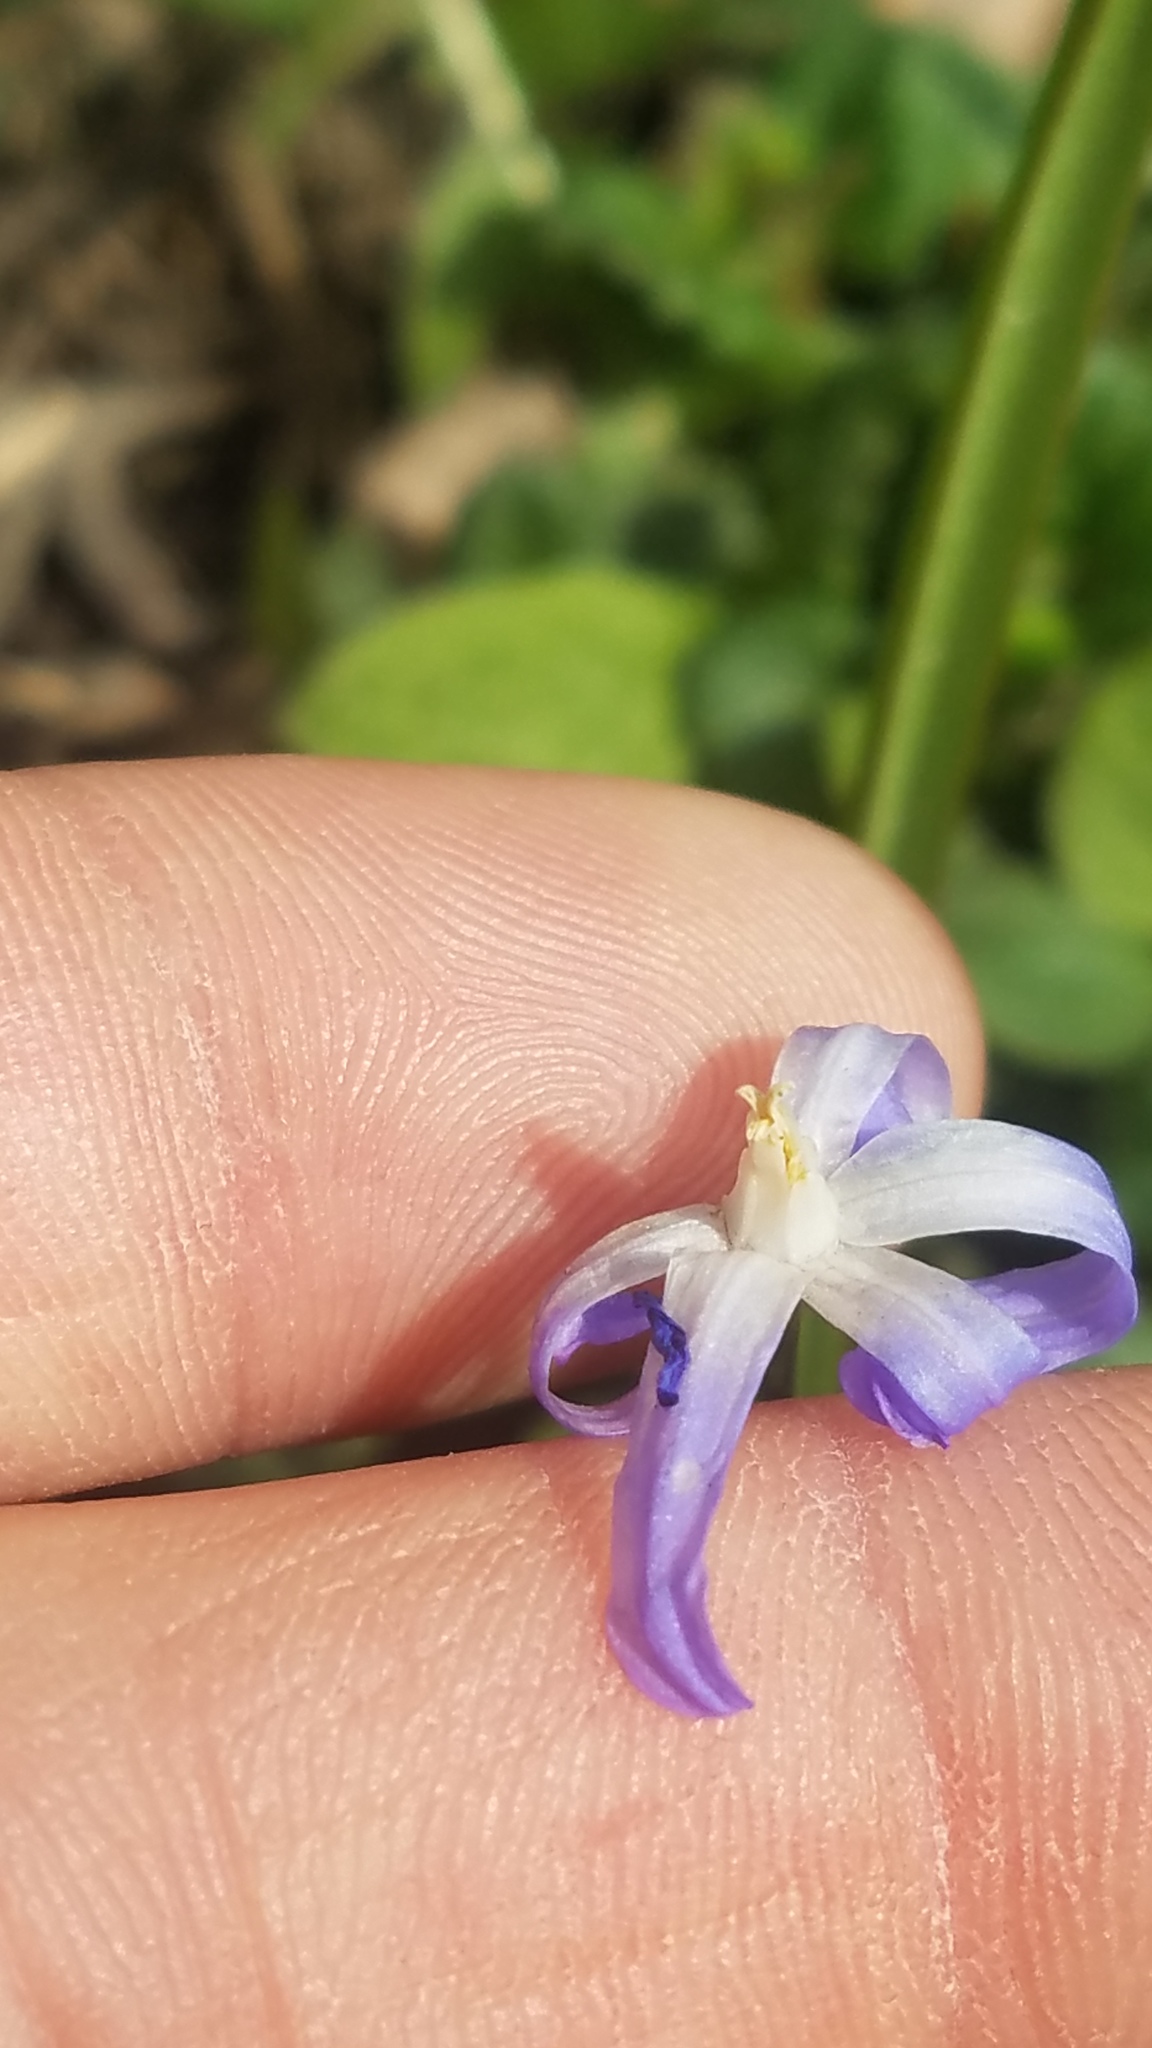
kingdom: Plantae
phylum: Tracheophyta
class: Liliopsida
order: Asparagales
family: Asparagaceae
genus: Scilla
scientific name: Scilla luciliae
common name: Boissier's glory-of-the-snow
